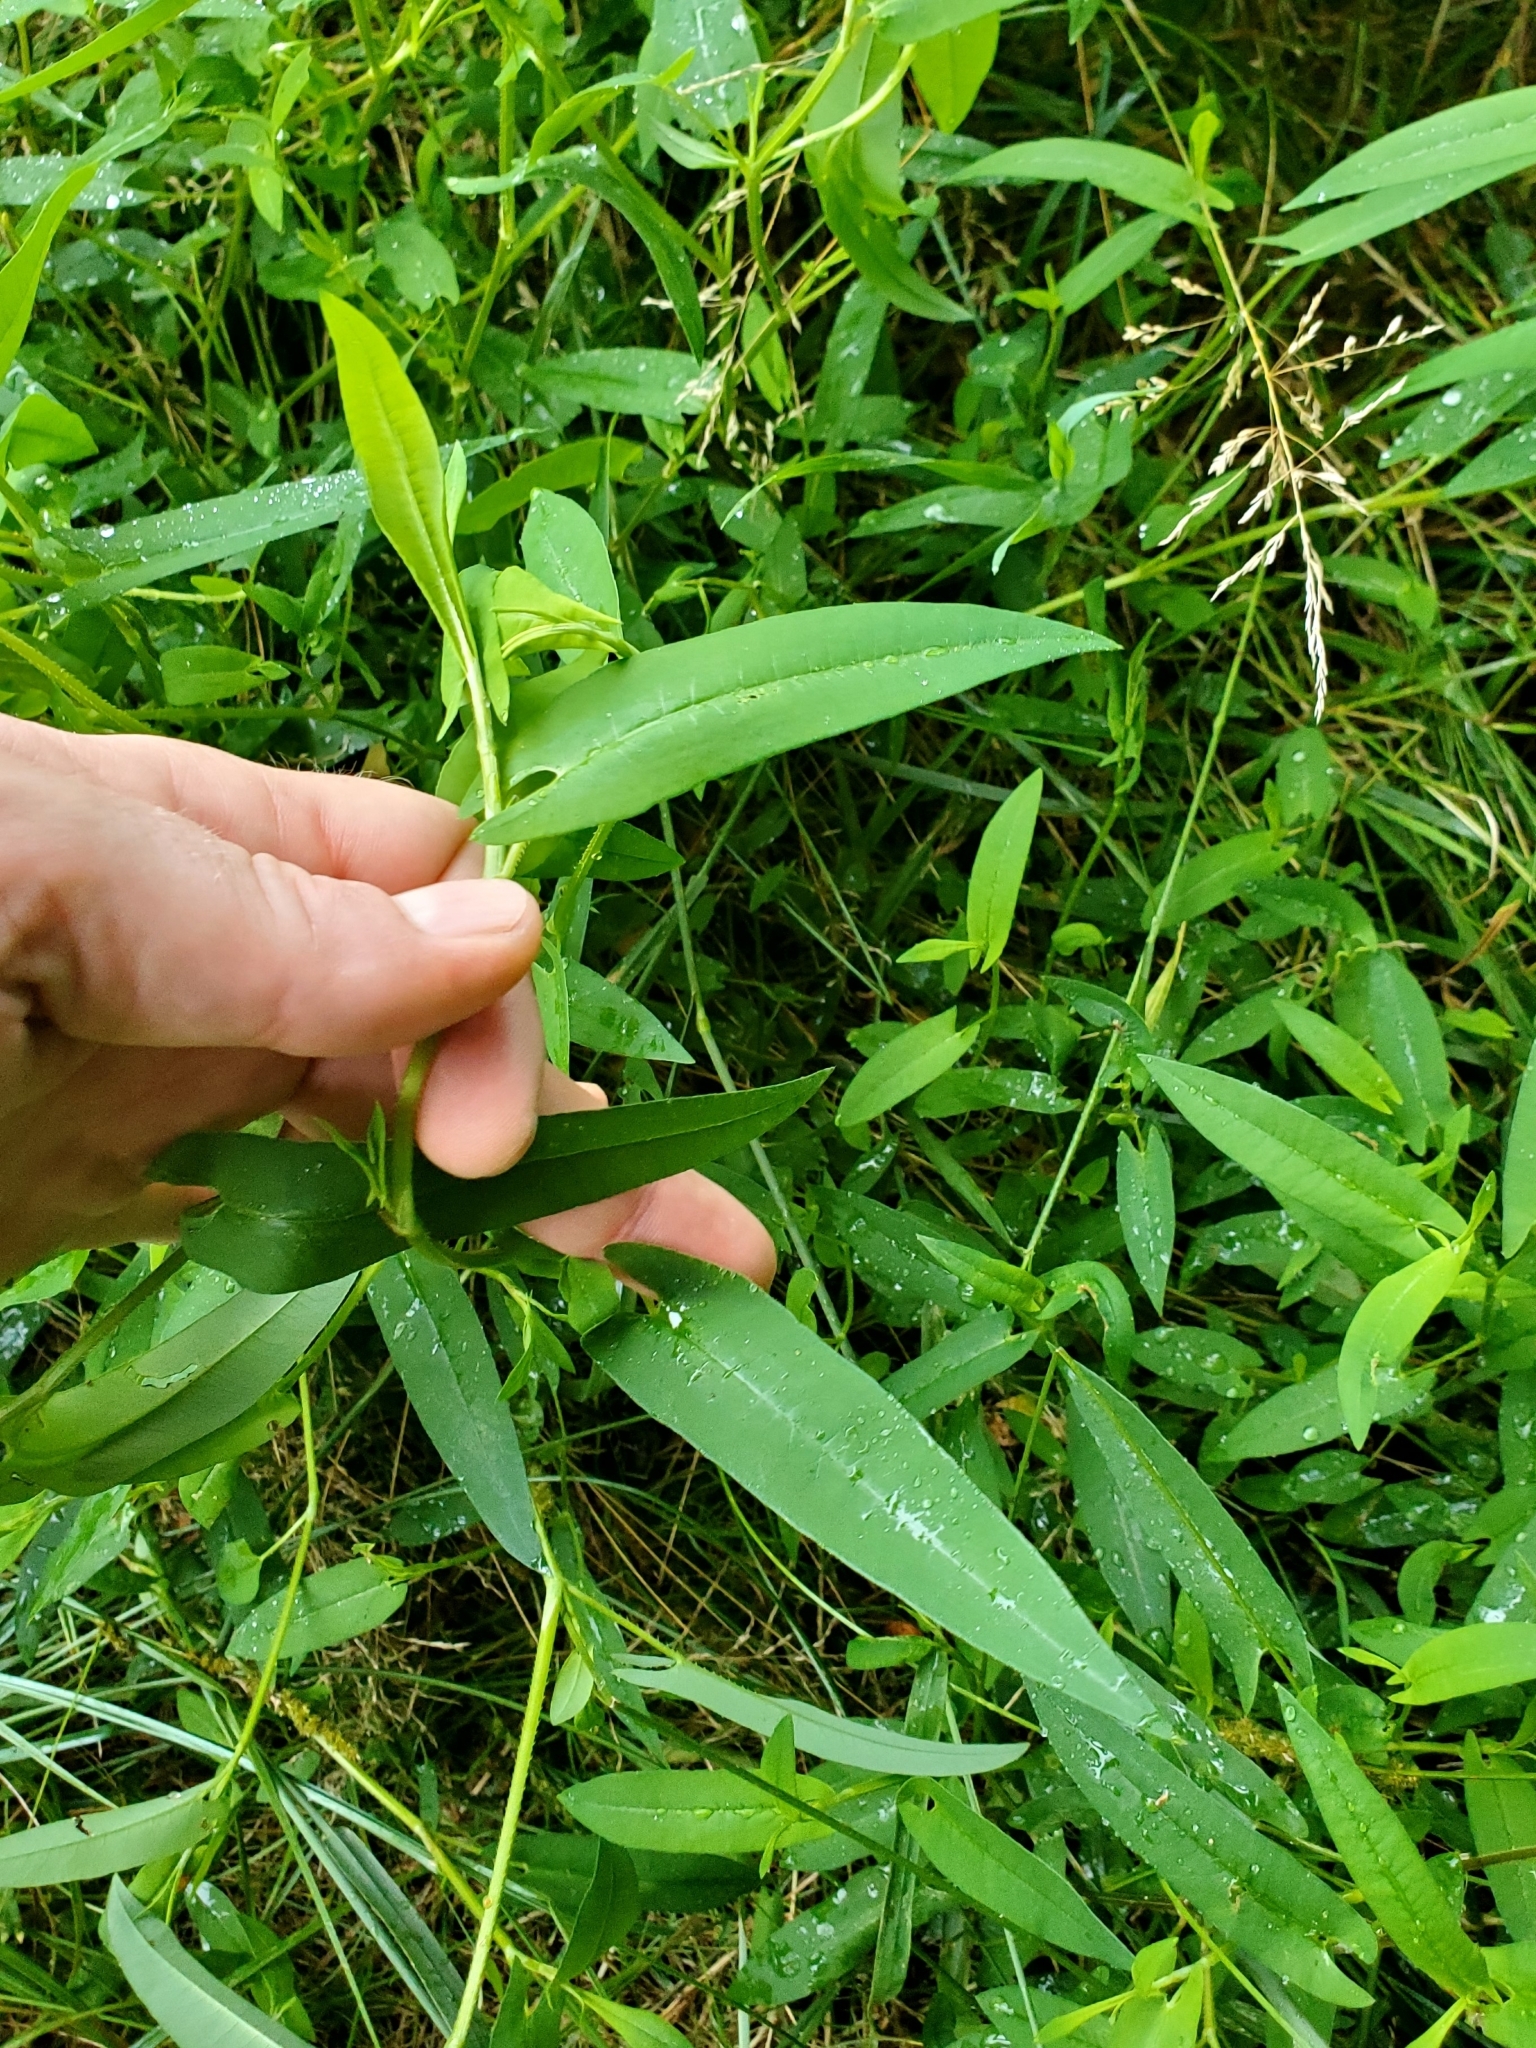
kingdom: Plantae
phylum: Tracheophyta
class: Magnoliopsida
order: Caryophyllales
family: Polygonaceae
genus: Persicaria
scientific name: Persicaria sagittata
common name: American tearthumb
